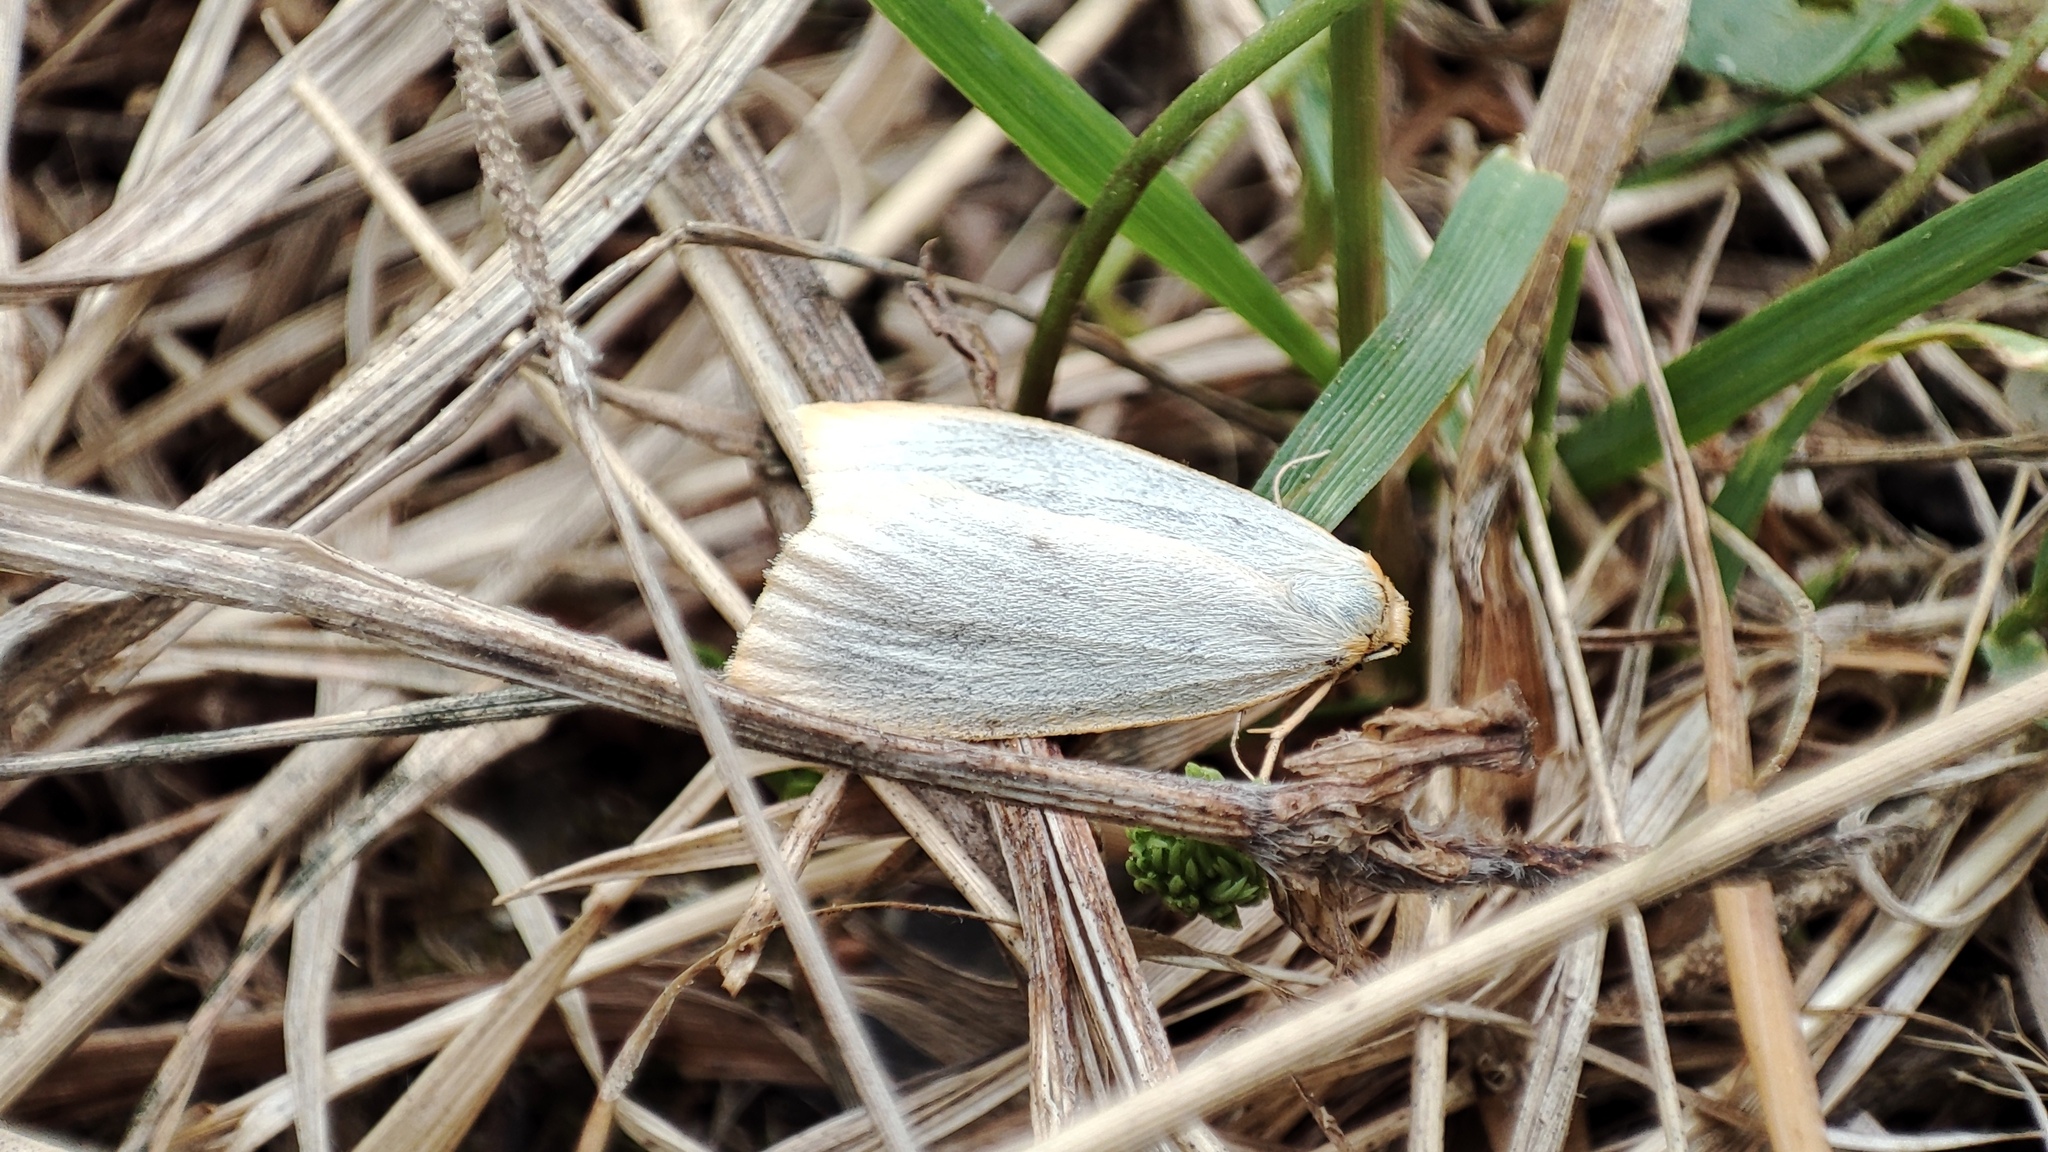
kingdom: Animalia
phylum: Arthropoda
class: Insecta
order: Lepidoptera
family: Erebidae
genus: Cybosia
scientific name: Cybosia mesomella
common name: Four-dotted footman
